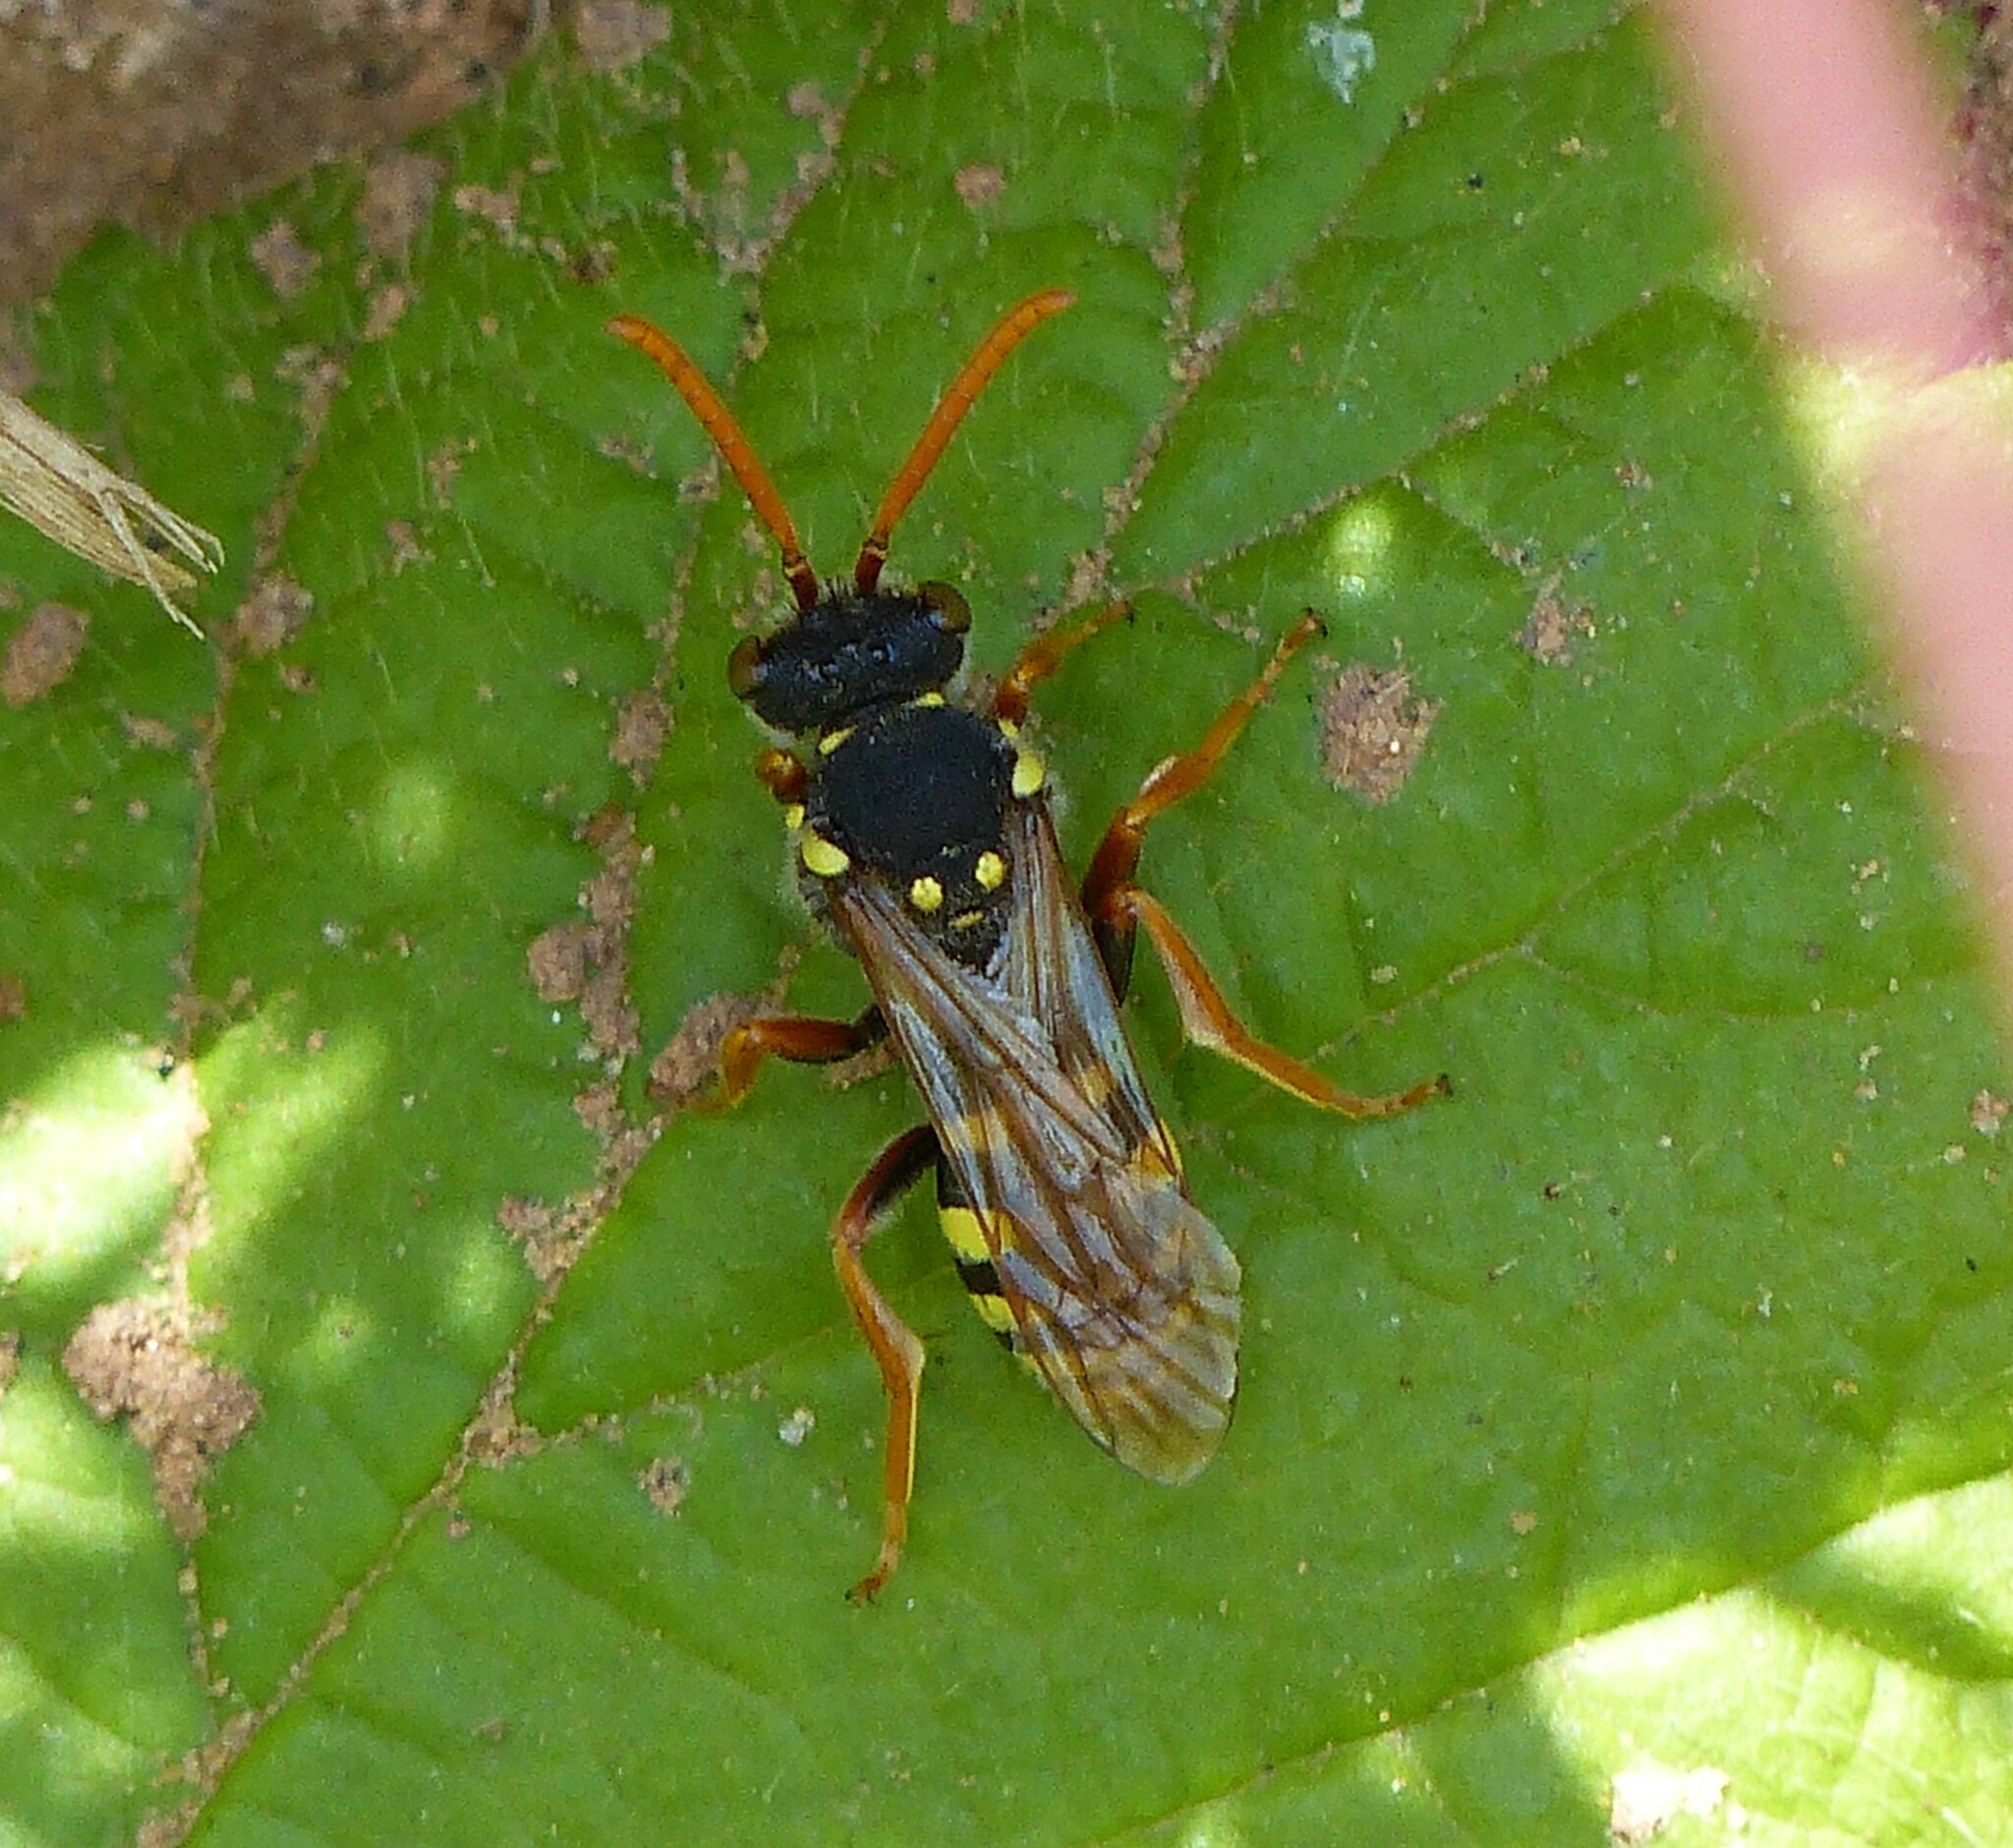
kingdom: Animalia
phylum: Arthropoda
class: Insecta
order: Hymenoptera
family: Apidae
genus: Nomada
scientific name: Nomada goodeniana
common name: Gooden's nomad bee
